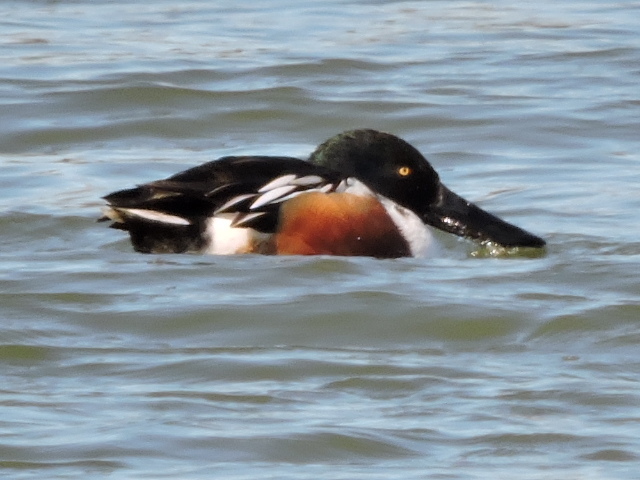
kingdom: Animalia
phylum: Chordata
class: Aves
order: Anseriformes
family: Anatidae
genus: Spatula
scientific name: Spatula clypeata
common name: Northern shoveler
